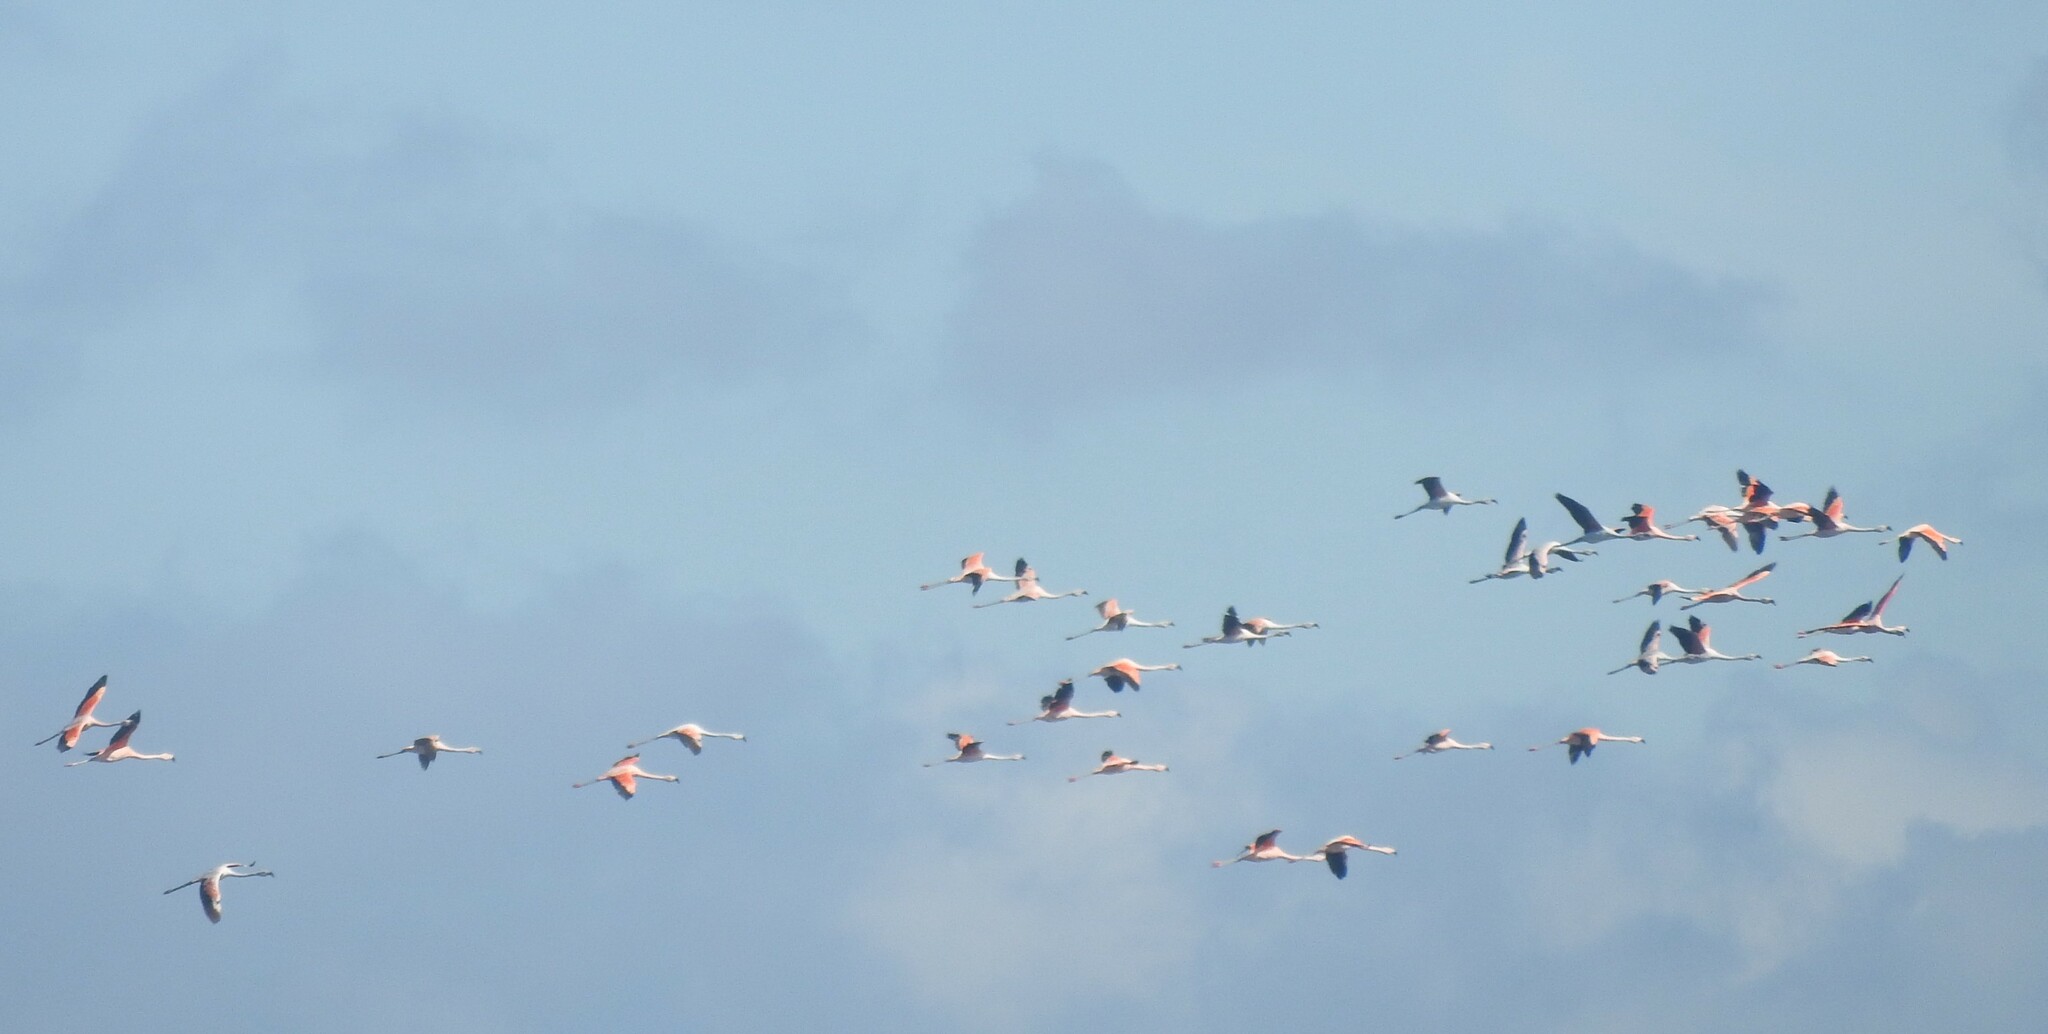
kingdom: Animalia
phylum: Chordata
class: Aves
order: Phoenicopteriformes
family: Phoenicopteridae
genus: Phoenicopterus
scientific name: Phoenicopterus chilensis
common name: Chilean flamingo
